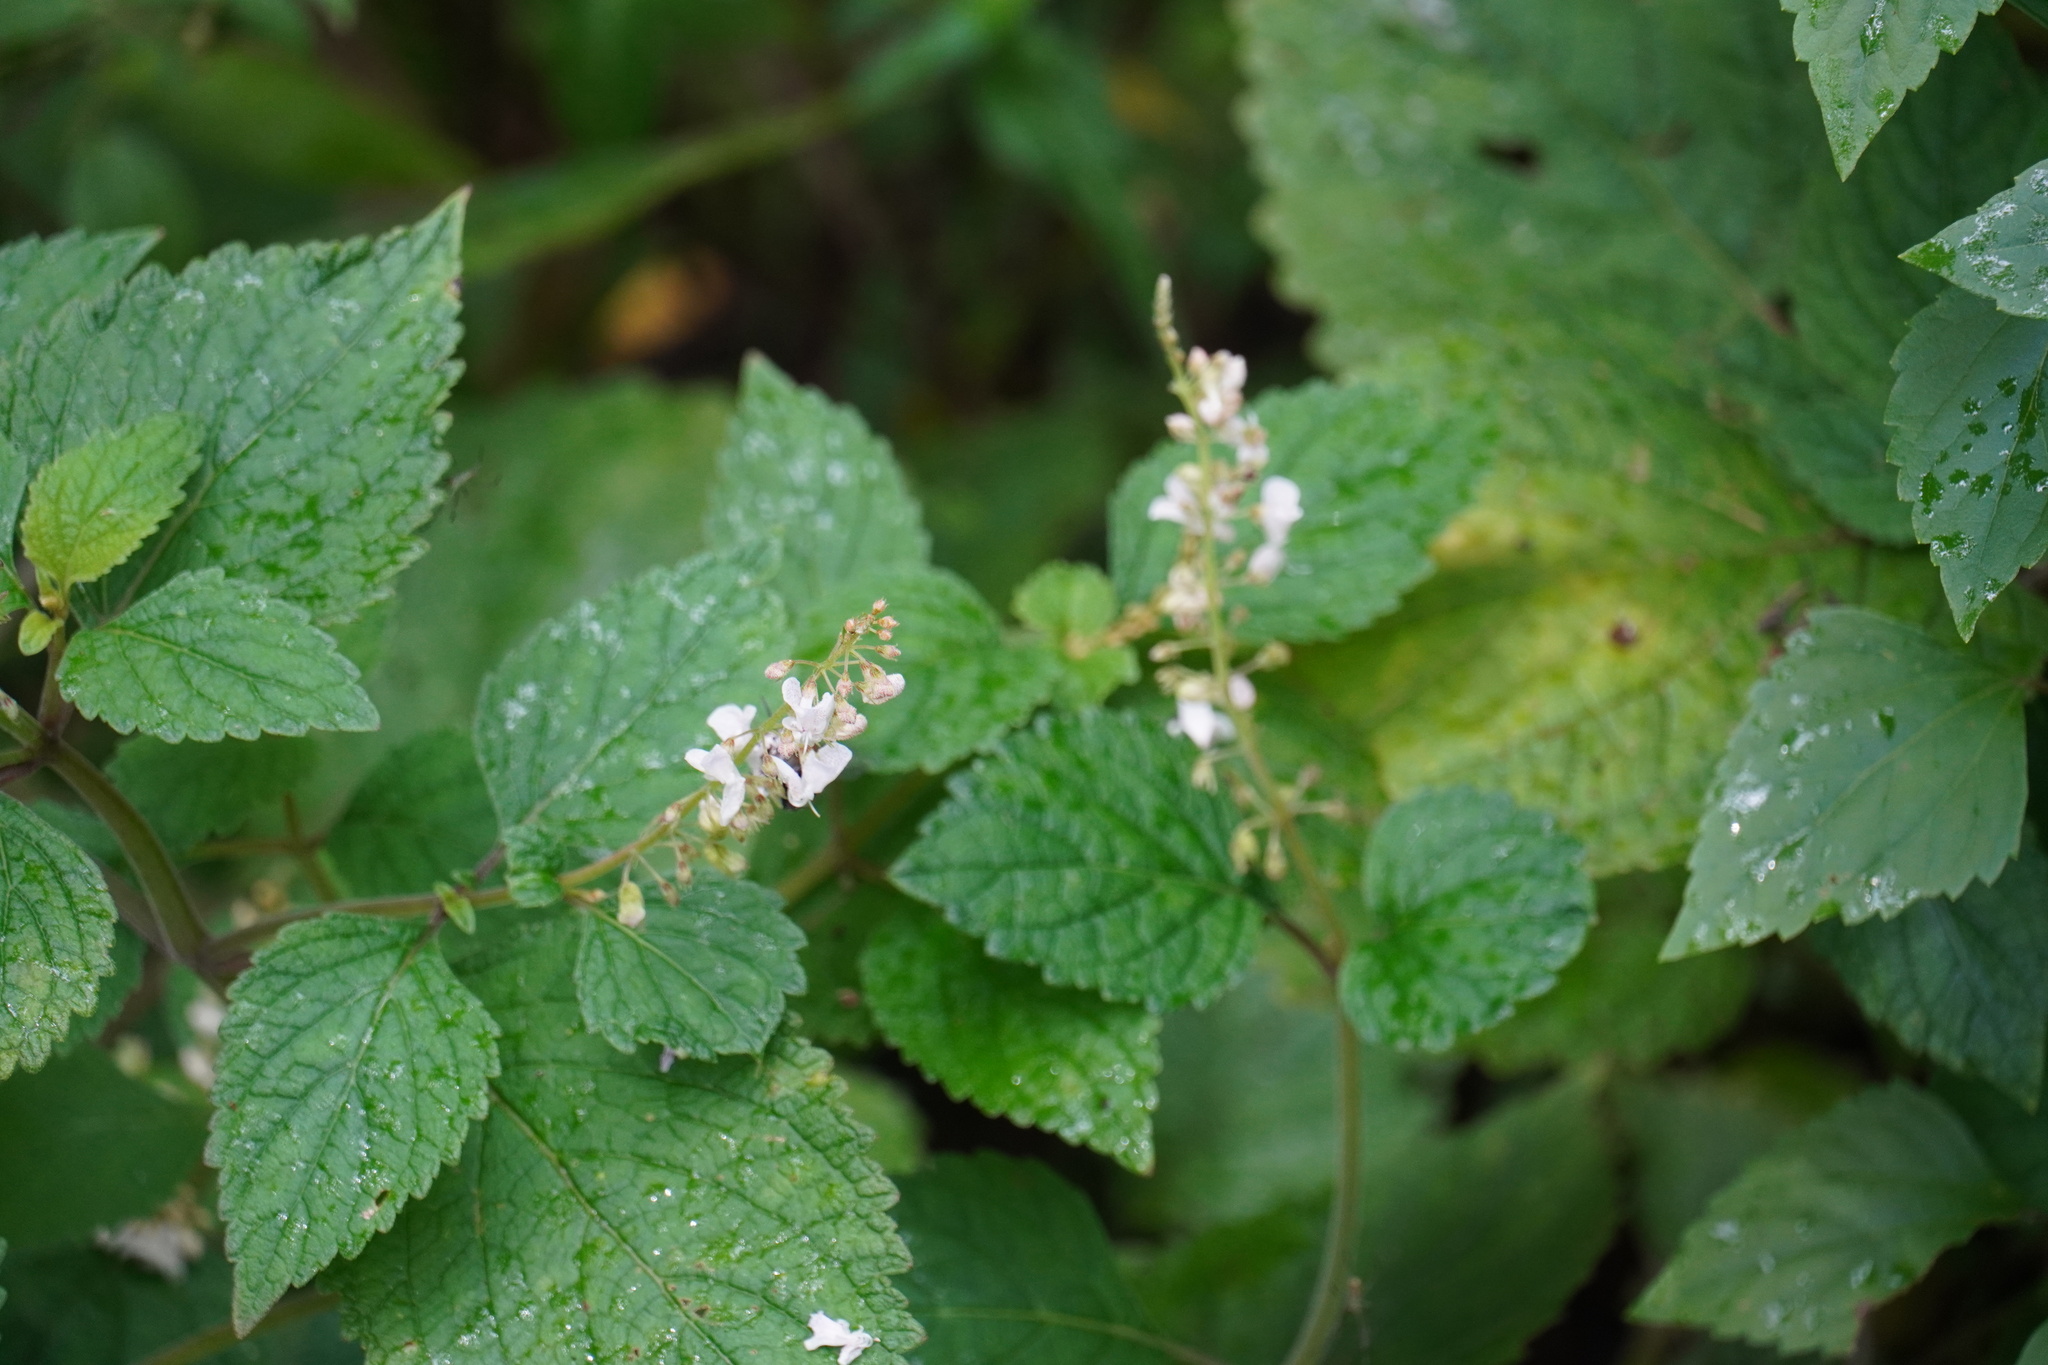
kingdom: Plantae
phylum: Tracheophyta
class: Magnoliopsida
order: Lamiales
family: Lamiaceae
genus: Plectranthus
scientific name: Plectranthus fruticosus
